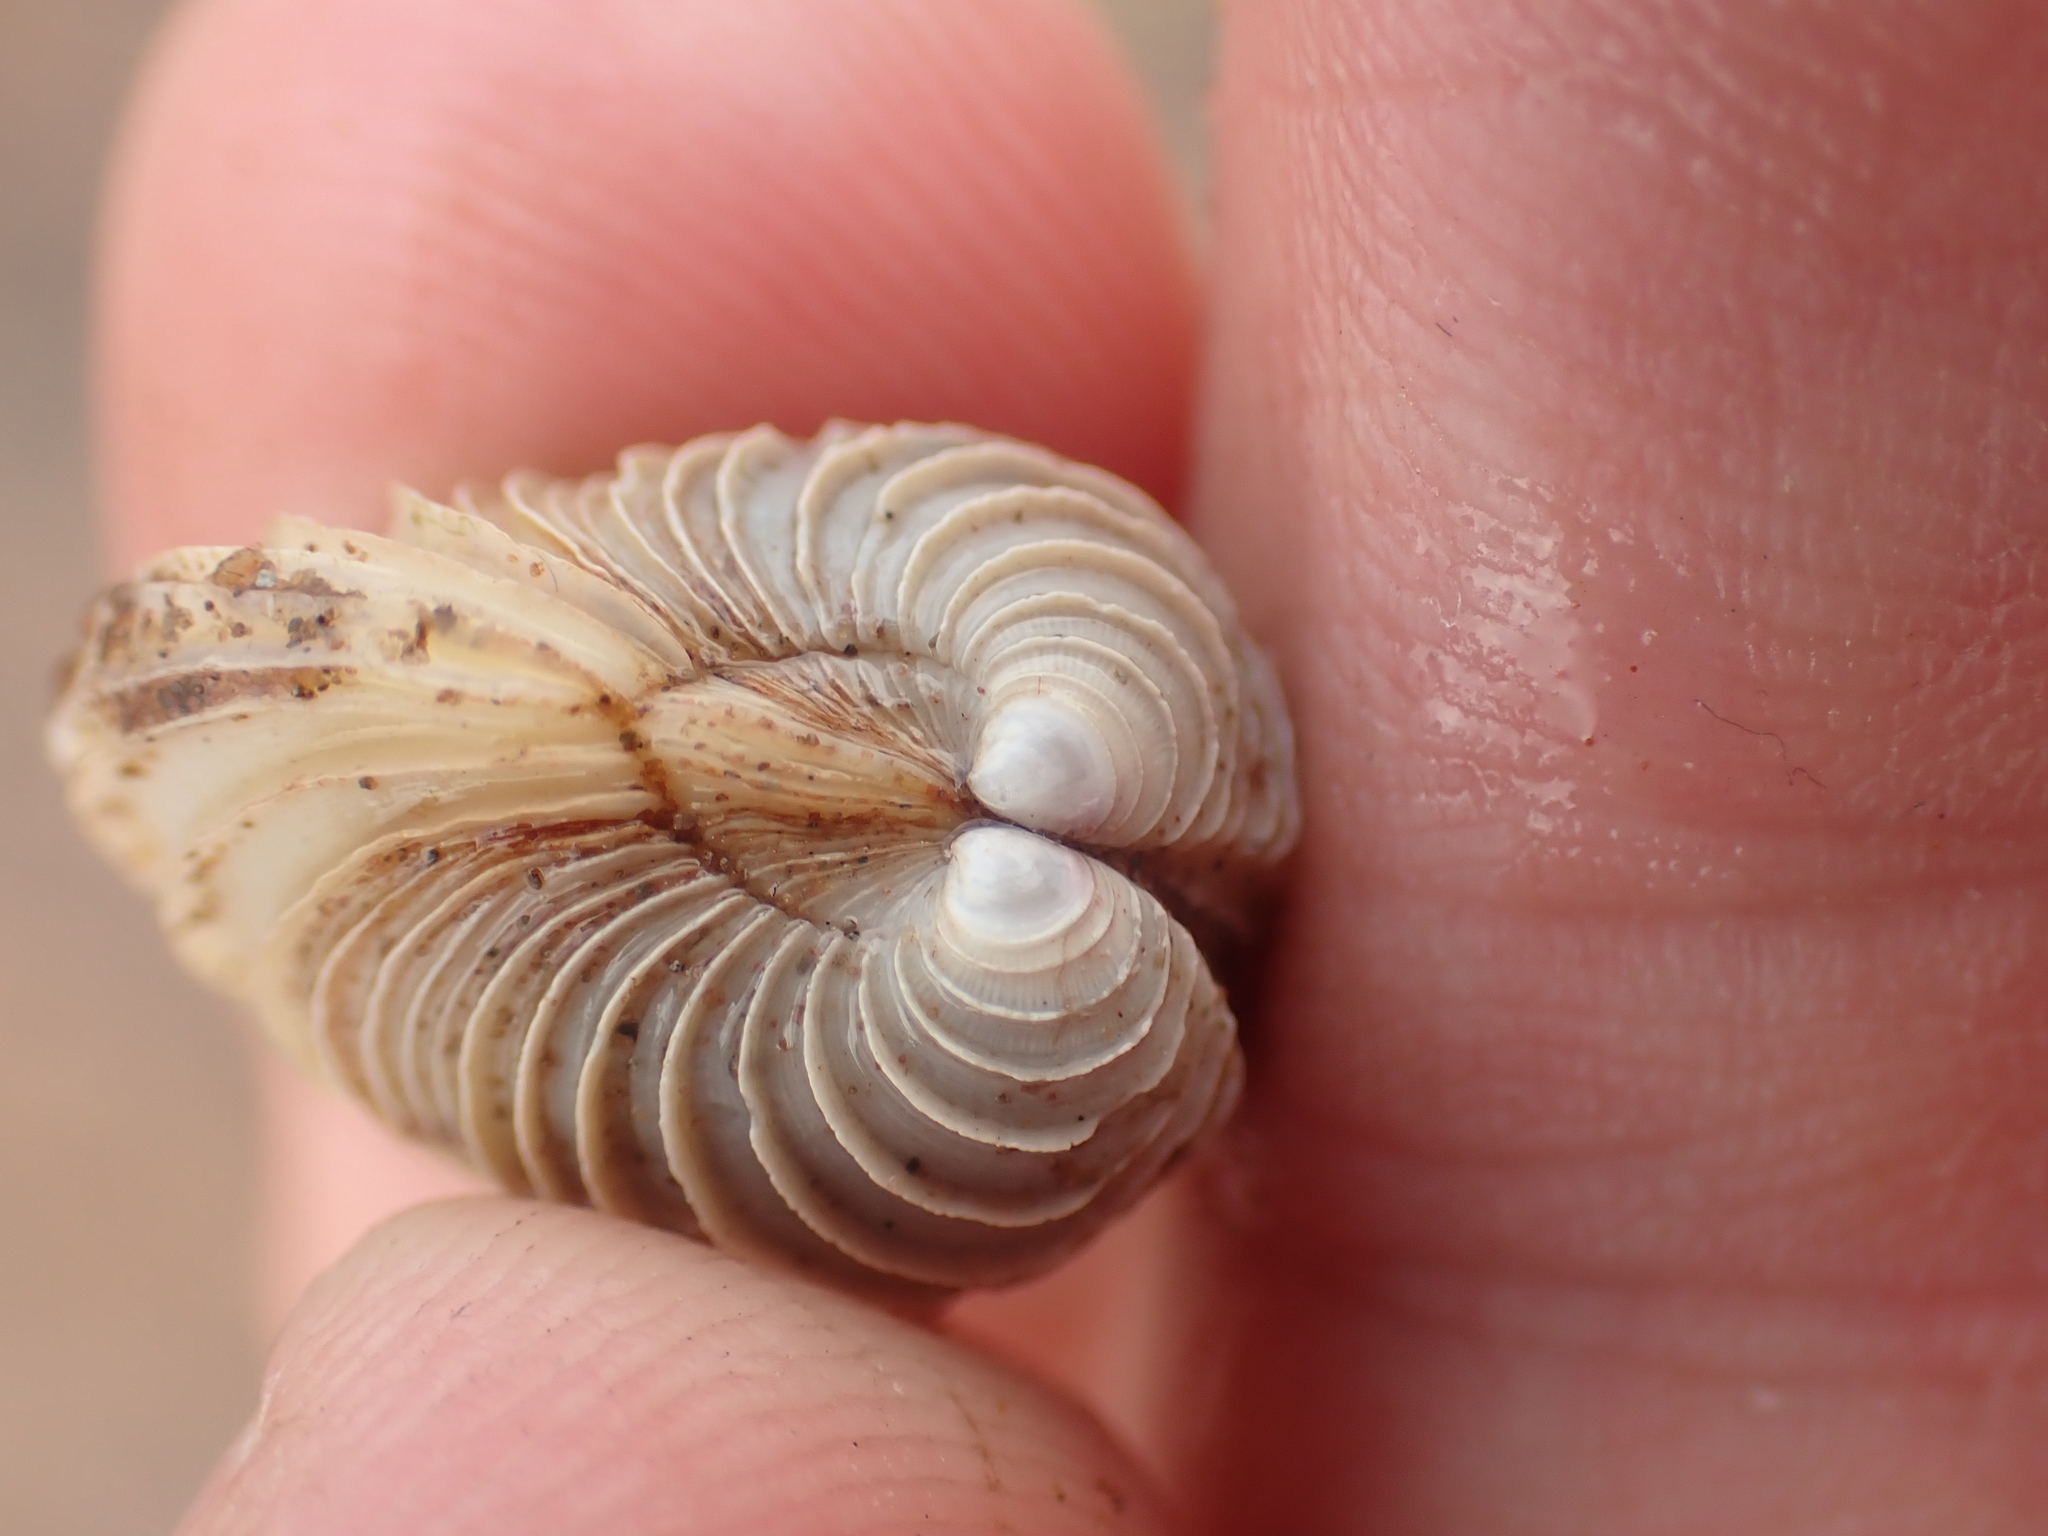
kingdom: Animalia
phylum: Mollusca
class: Bivalvia
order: Venerida
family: Veneridae
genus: Mercenaria
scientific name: Mercenaria mercenaria
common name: American hard-shelled clam
